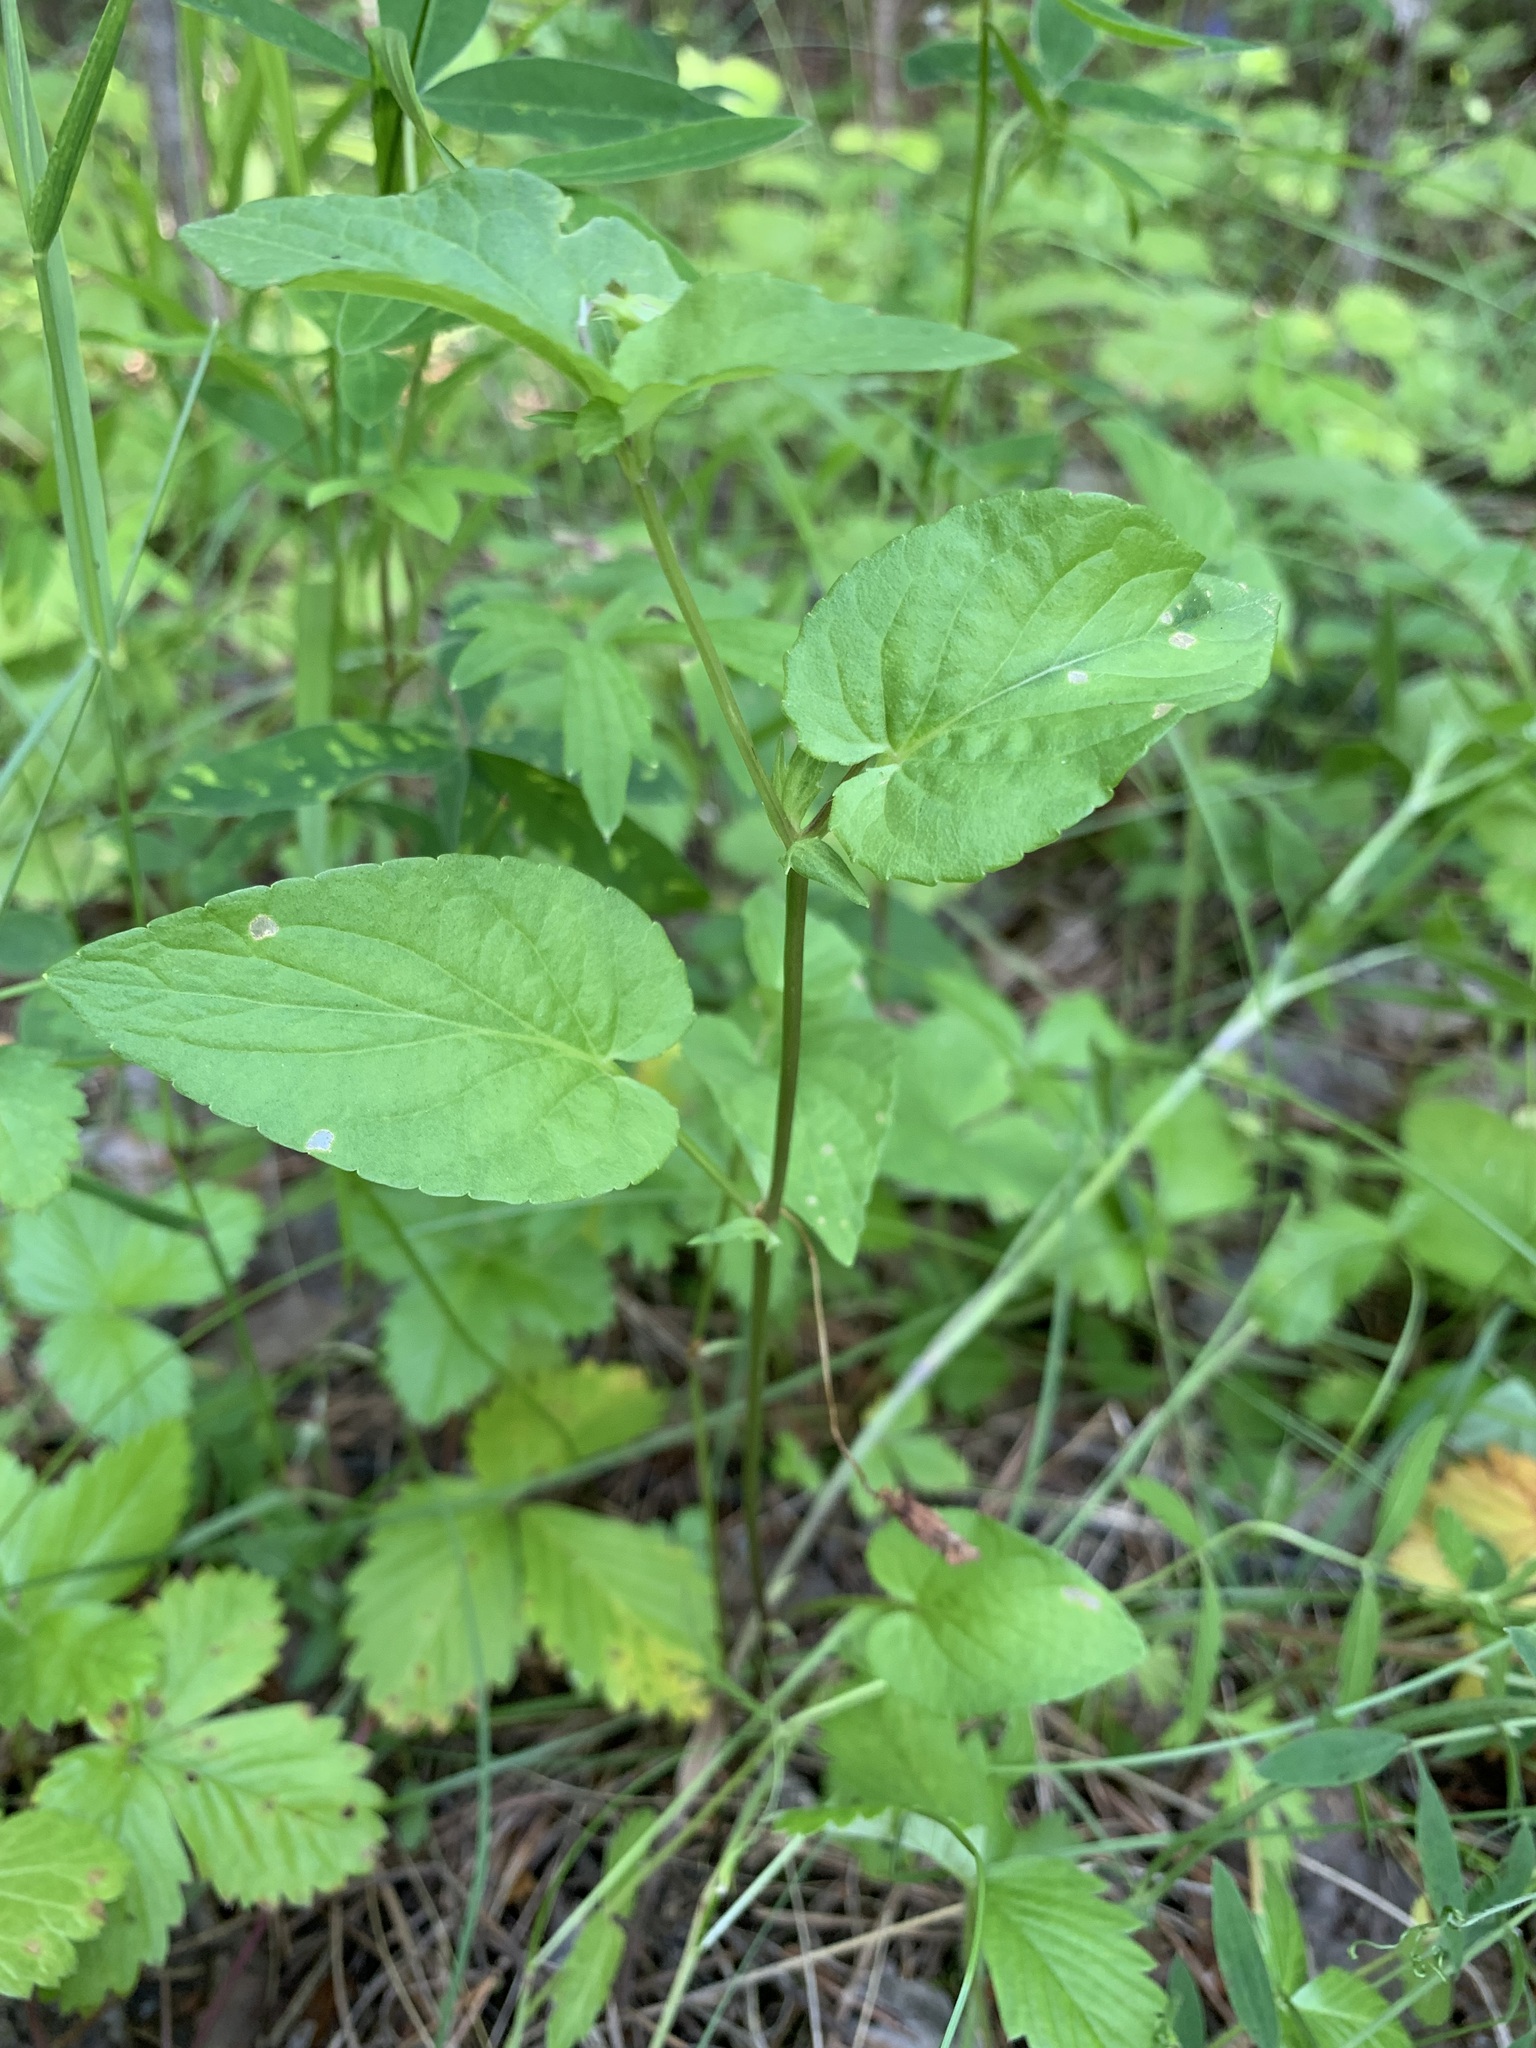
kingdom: Plantae
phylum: Tracheophyta
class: Magnoliopsida
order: Malpighiales
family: Violaceae
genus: Viola
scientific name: Viola
